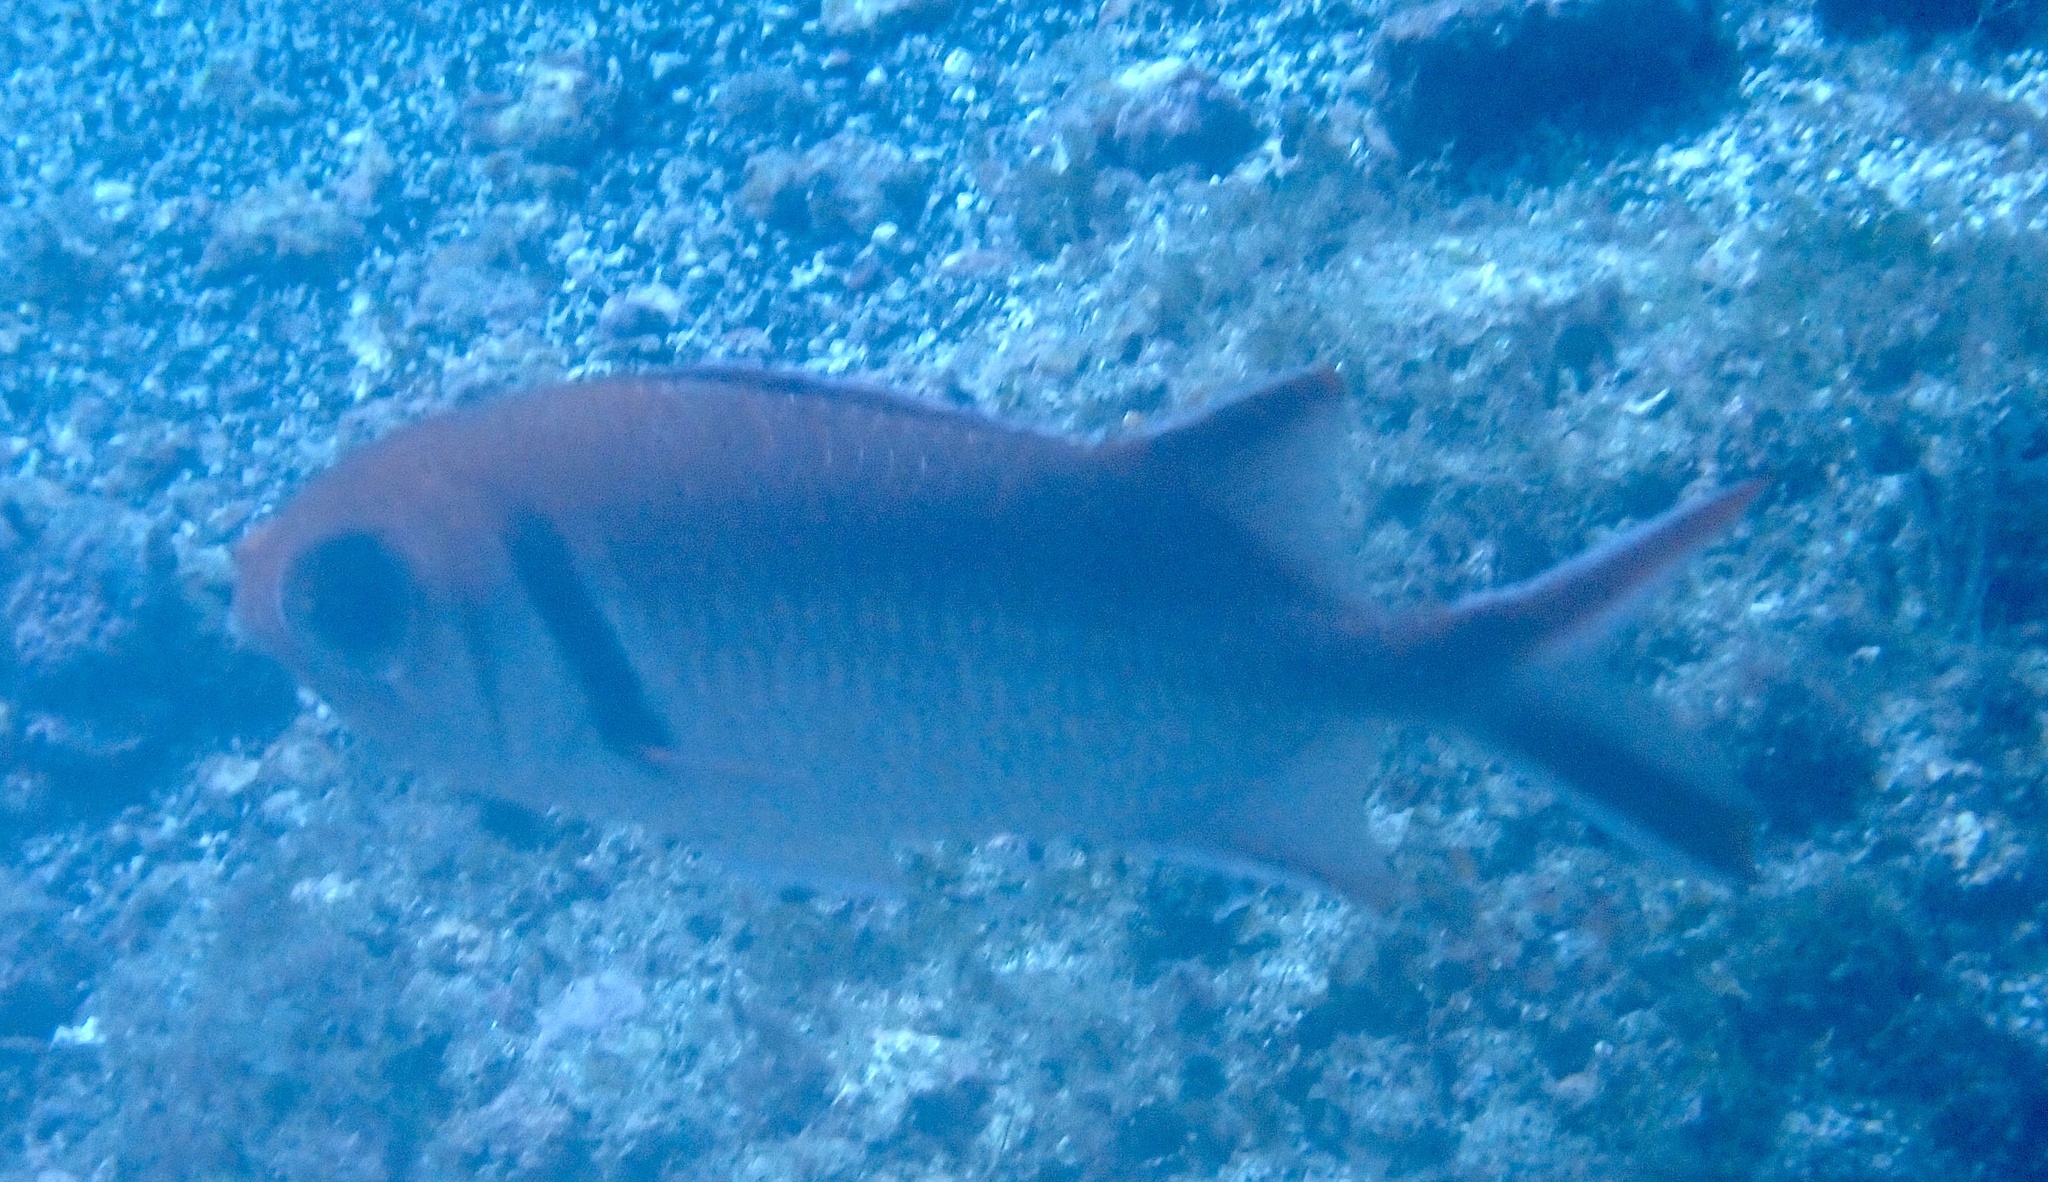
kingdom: Animalia
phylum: Chordata
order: Beryciformes
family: Holocentridae
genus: Myripristis
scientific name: Myripristis jacobus
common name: Blackbar soldierfish
